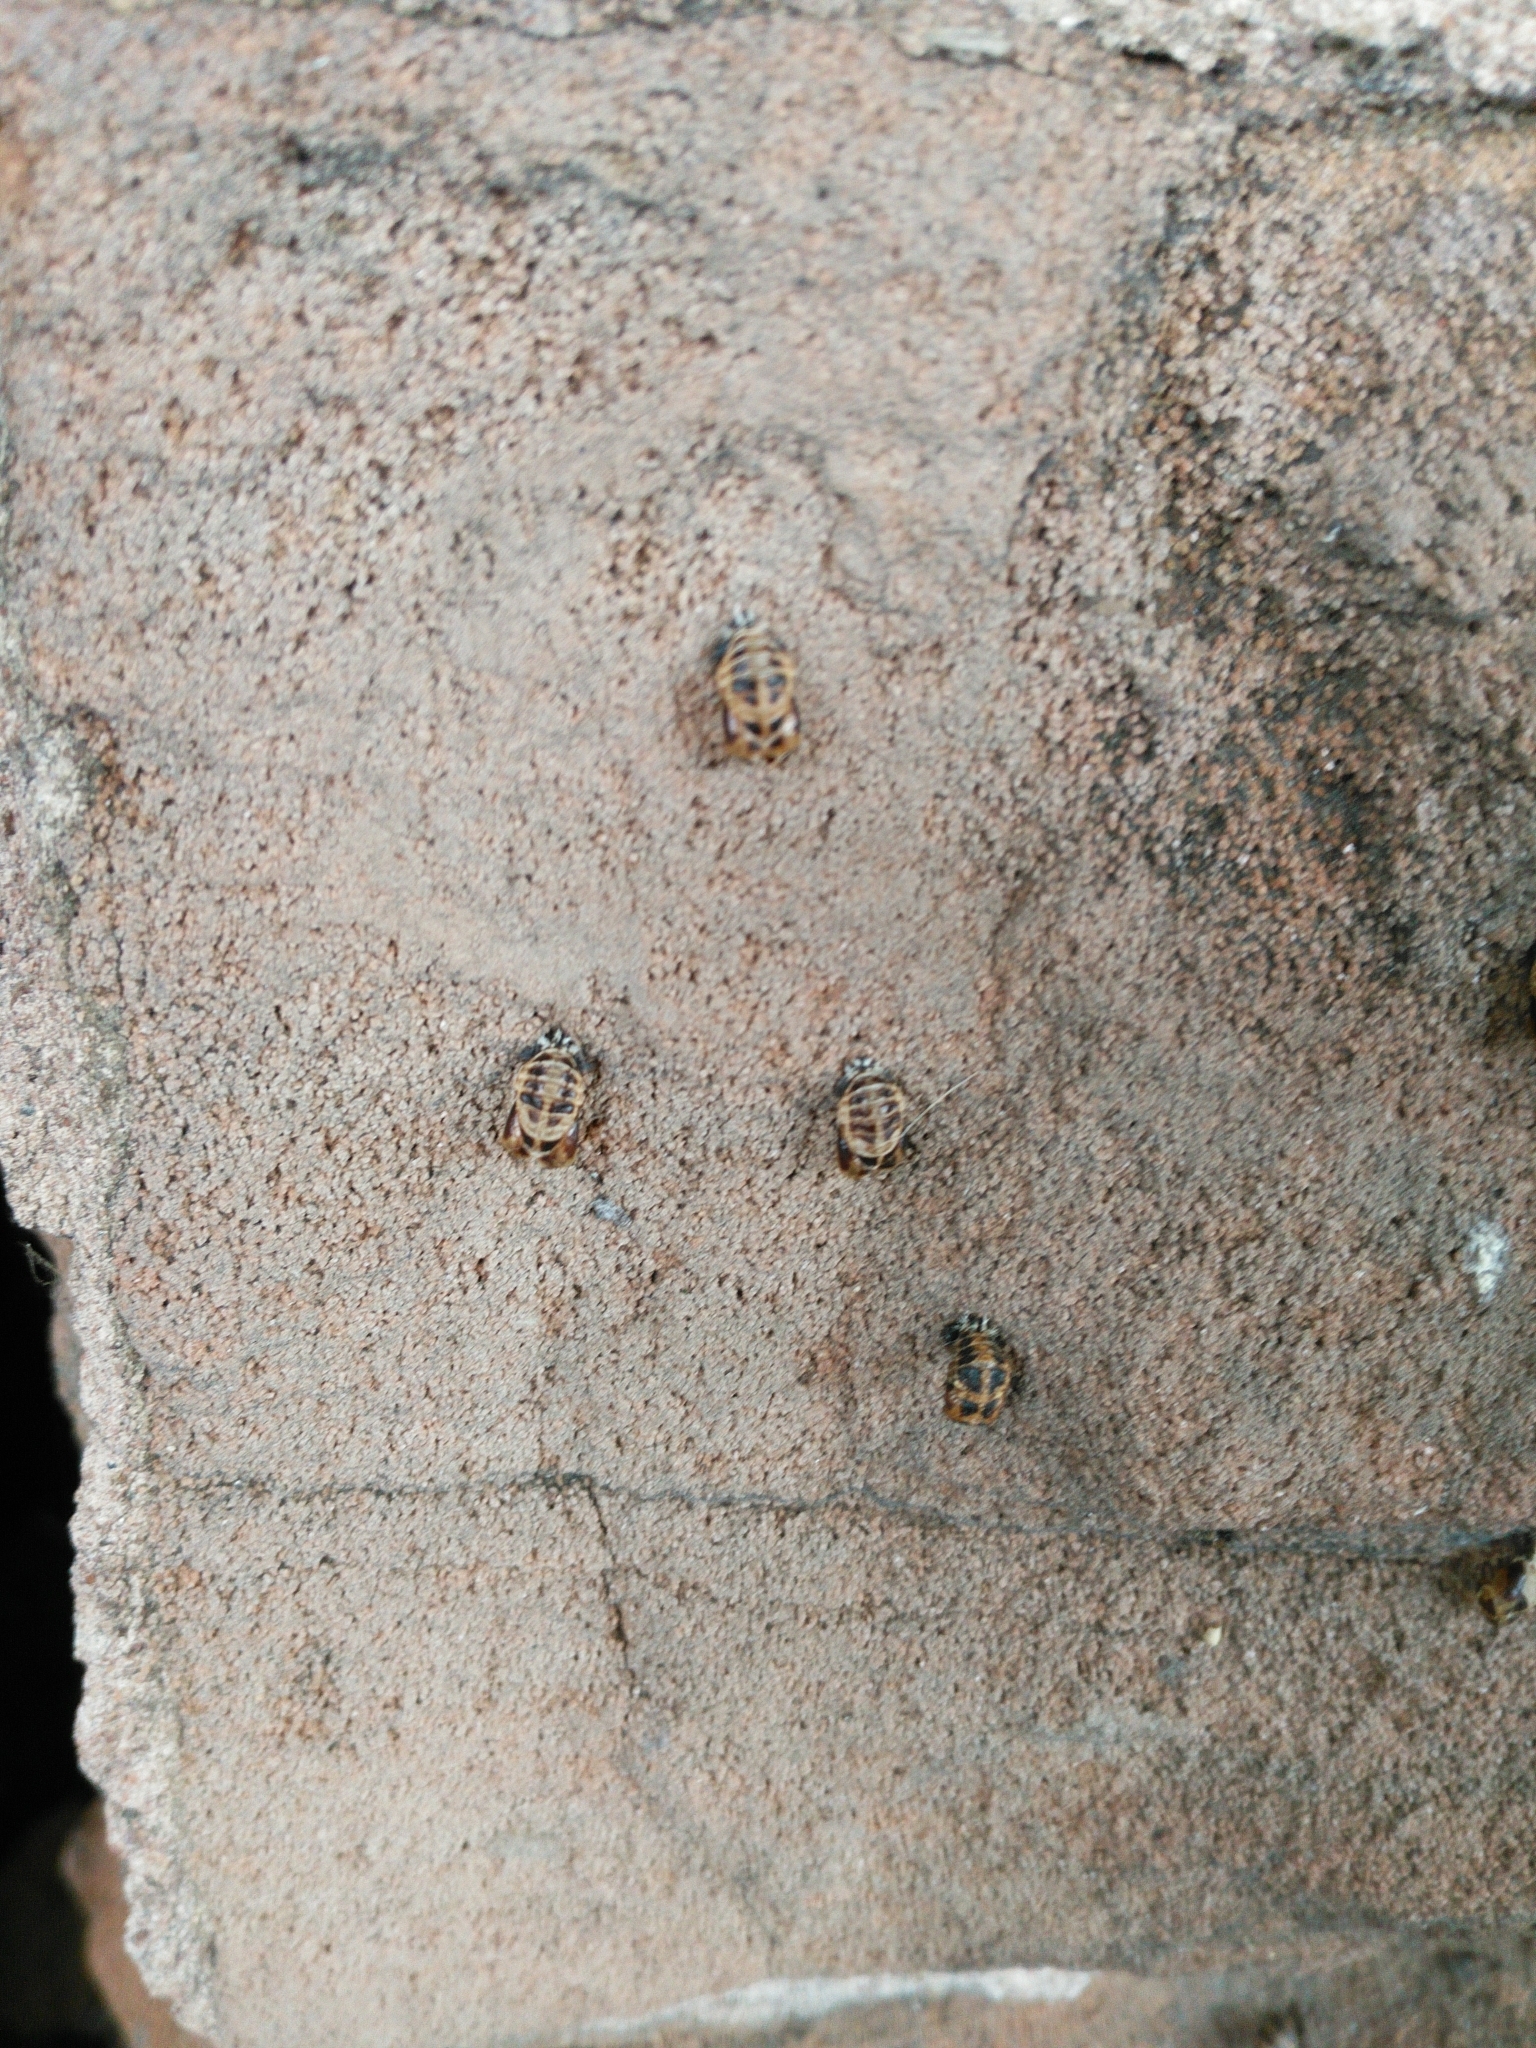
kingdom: Animalia
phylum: Arthropoda
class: Insecta
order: Coleoptera
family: Coccinellidae
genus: Harmonia
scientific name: Harmonia axyridis
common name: Harlequin ladybird
